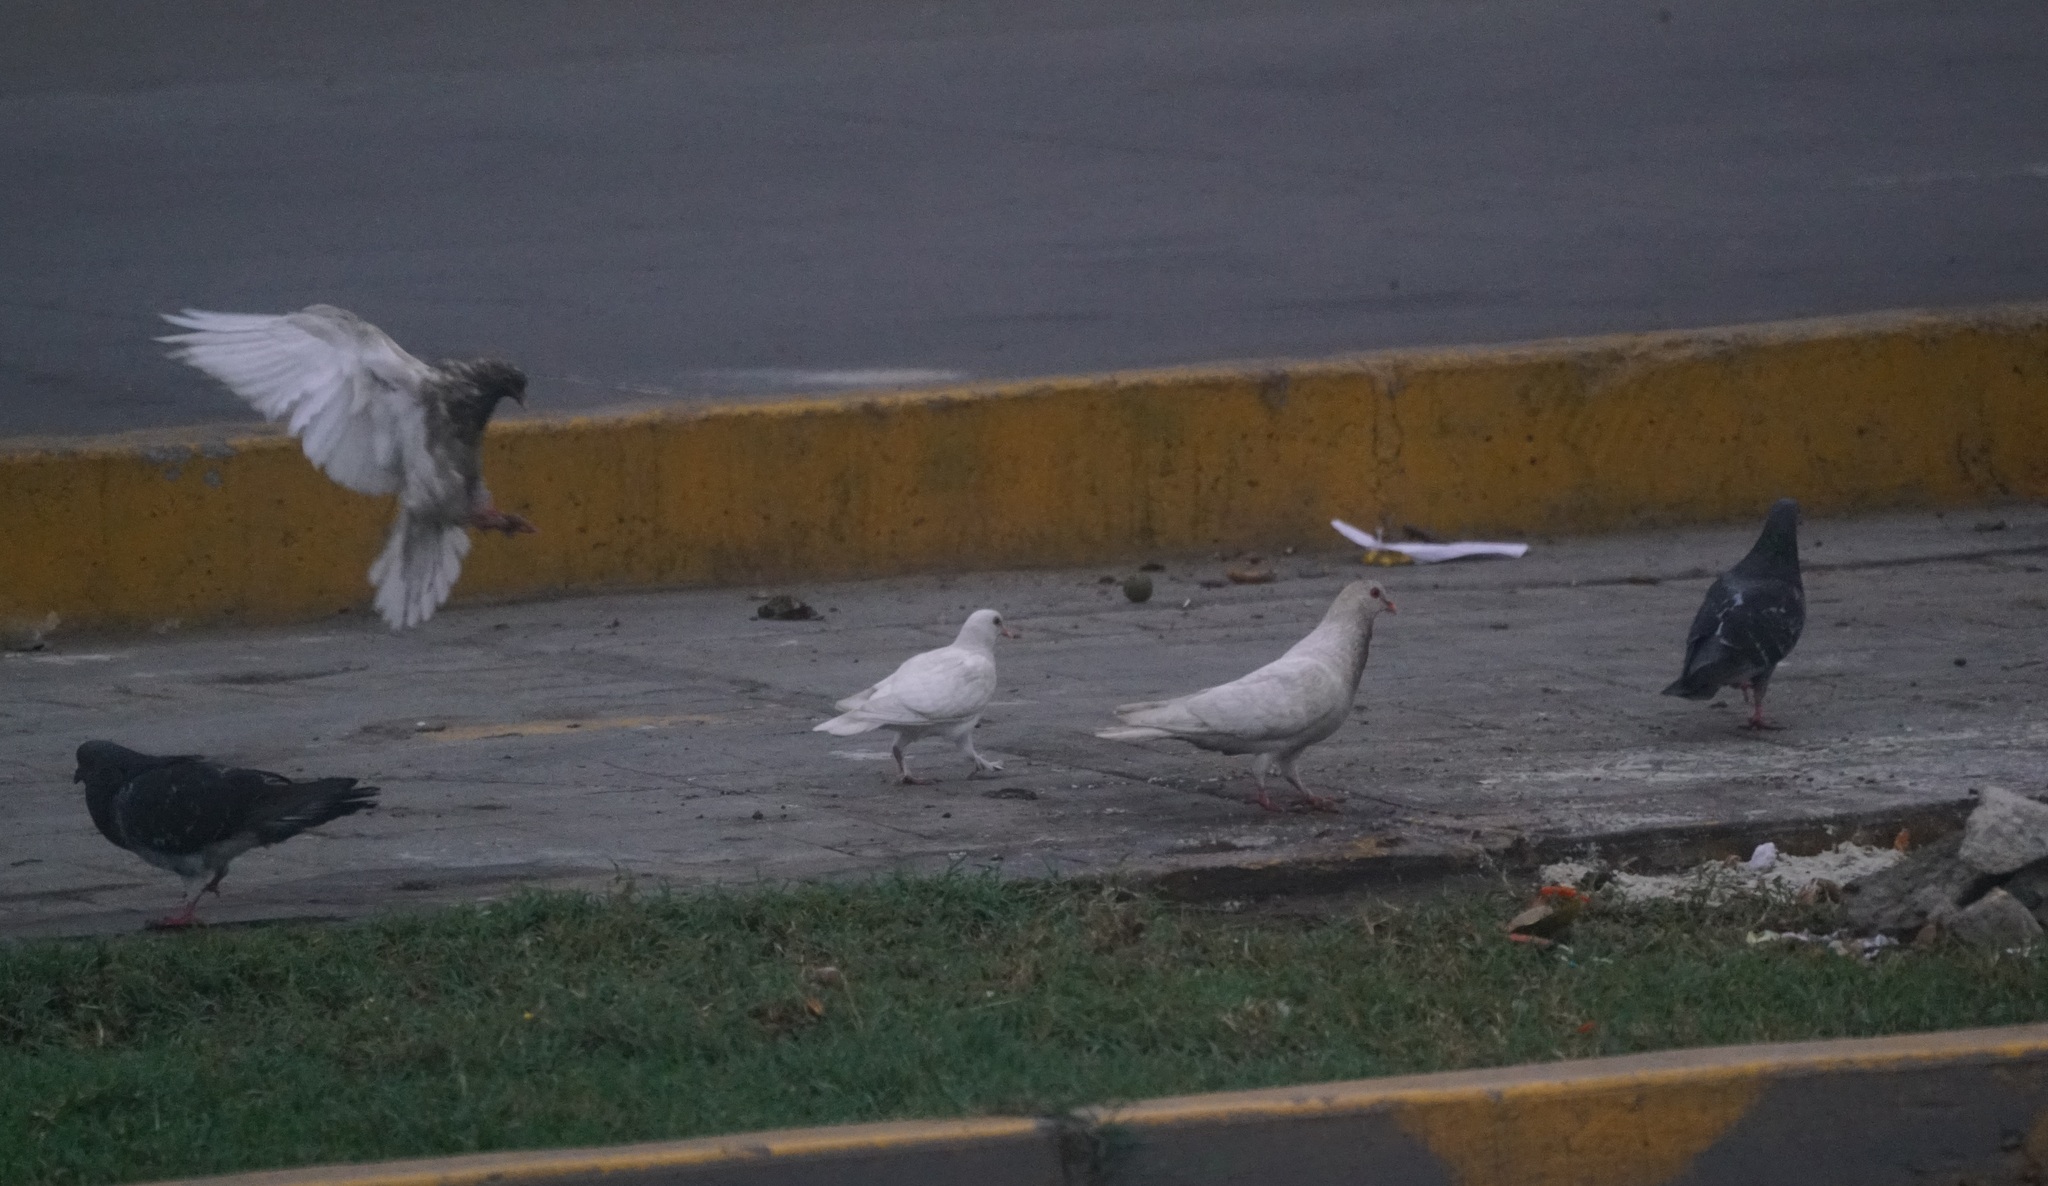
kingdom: Animalia
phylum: Chordata
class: Aves
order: Columbiformes
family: Columbidae
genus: Columba
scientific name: Columba livia
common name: Rock pigeon
